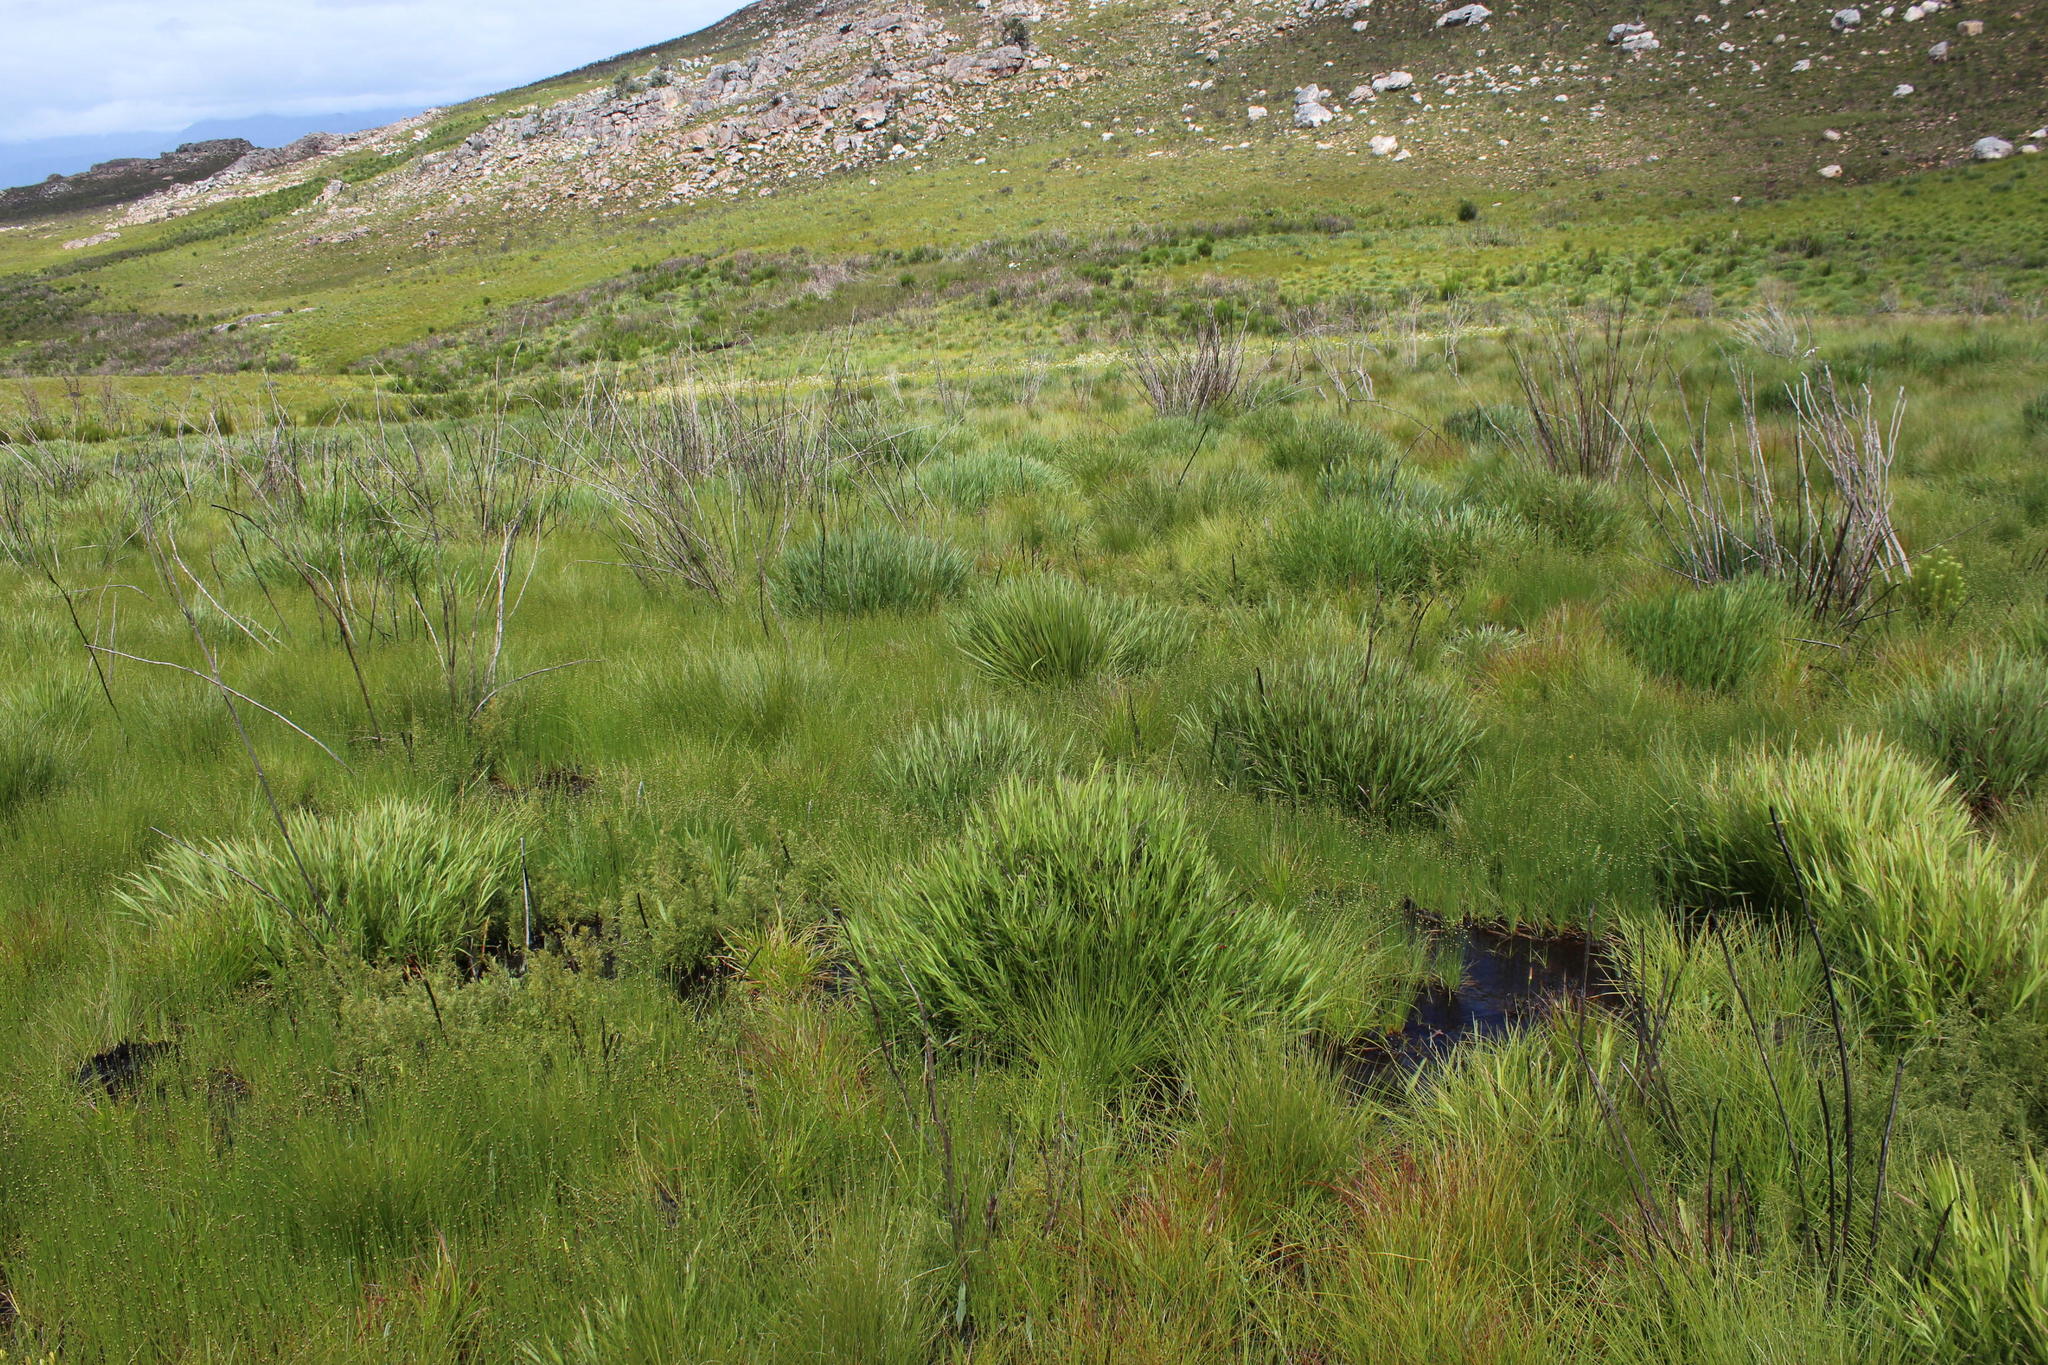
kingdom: Plantae
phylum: Tracheophyta
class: Magnoliopsida
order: Rosales
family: Rosaceae
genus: Cliffortia
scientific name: Cliffortia graminea
